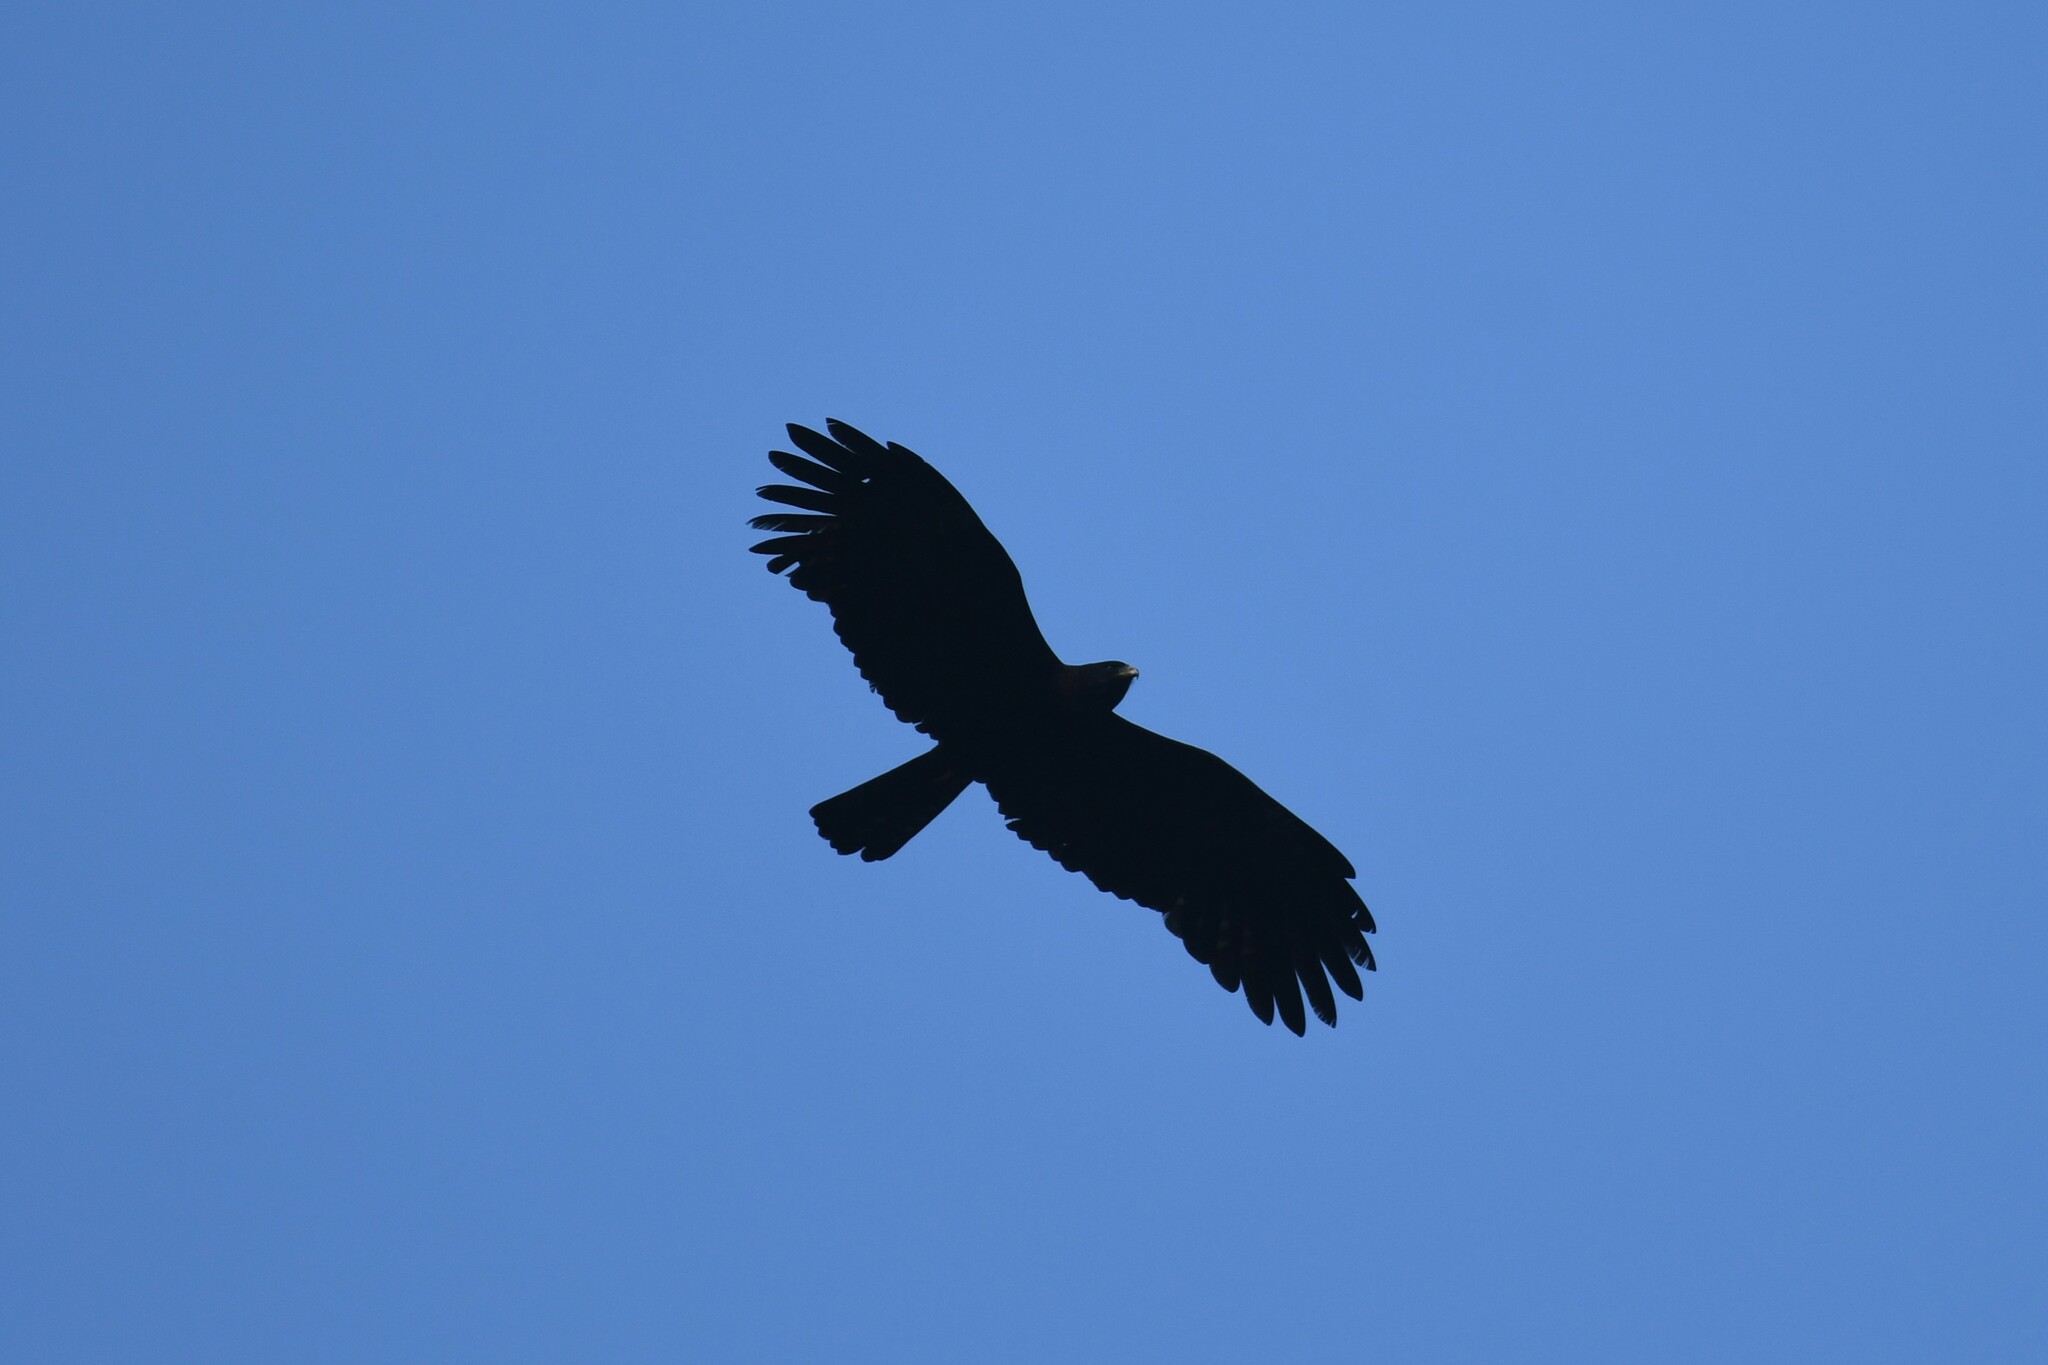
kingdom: Animalia
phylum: Chordata
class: Aves
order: Accipitriformes
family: Accipitridae
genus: Ictinaetus
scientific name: Ictinaetus malayensis
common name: Black eagle
